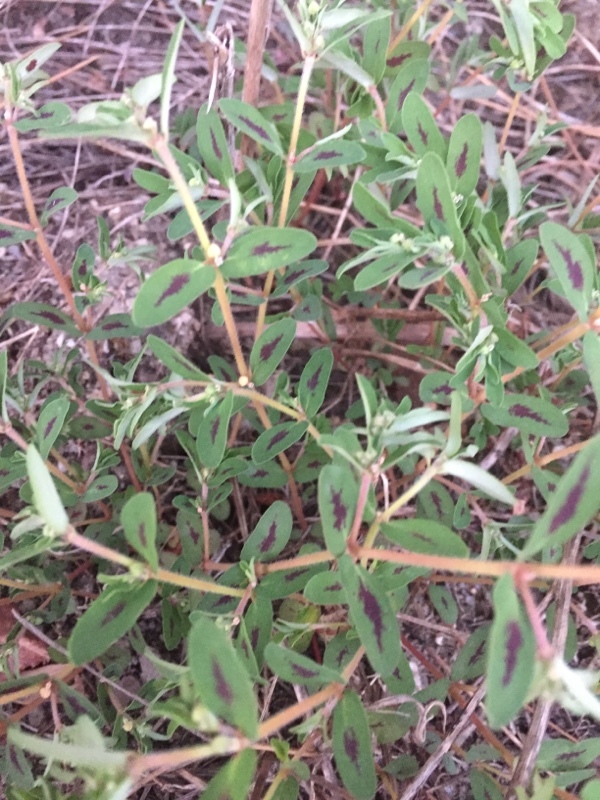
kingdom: Plantae
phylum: Tracheophyta
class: Magnoliopsida
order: Malpighiales
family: Euphorbiaceae
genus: Euphorbia
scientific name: Euphorbia maculata
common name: Spotted spurge
